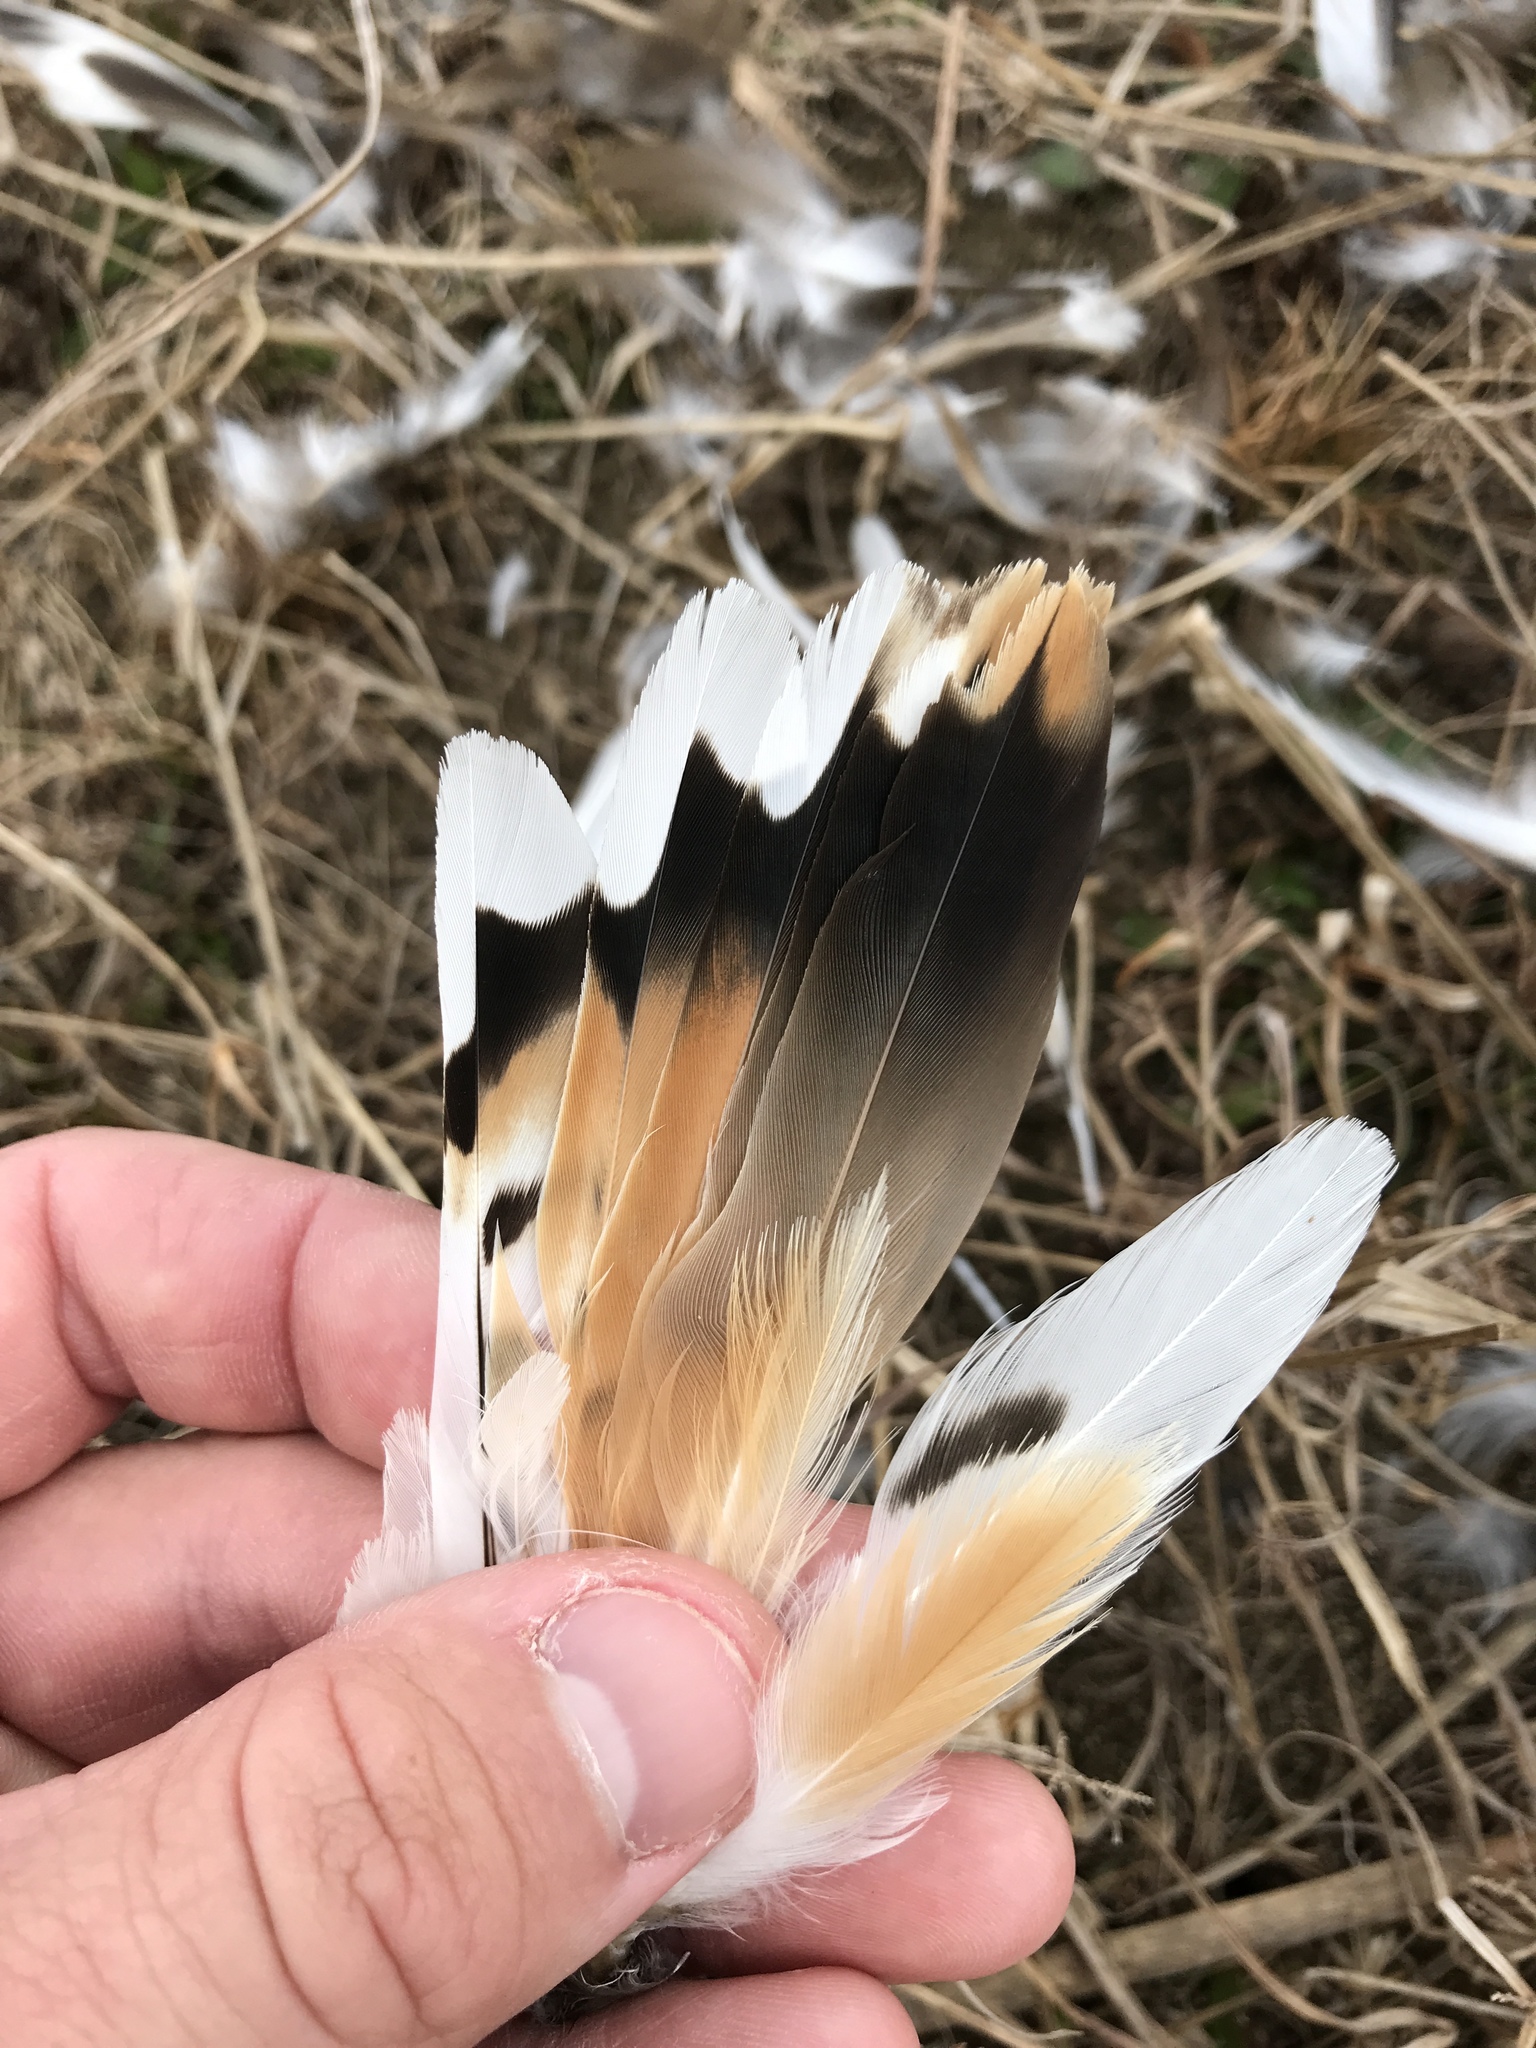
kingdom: Animalia
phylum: Chordata
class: Aves
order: Charadriiformes
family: Charadriidae
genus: Charadrius
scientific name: Charadrius vociferus
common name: Killdeer
